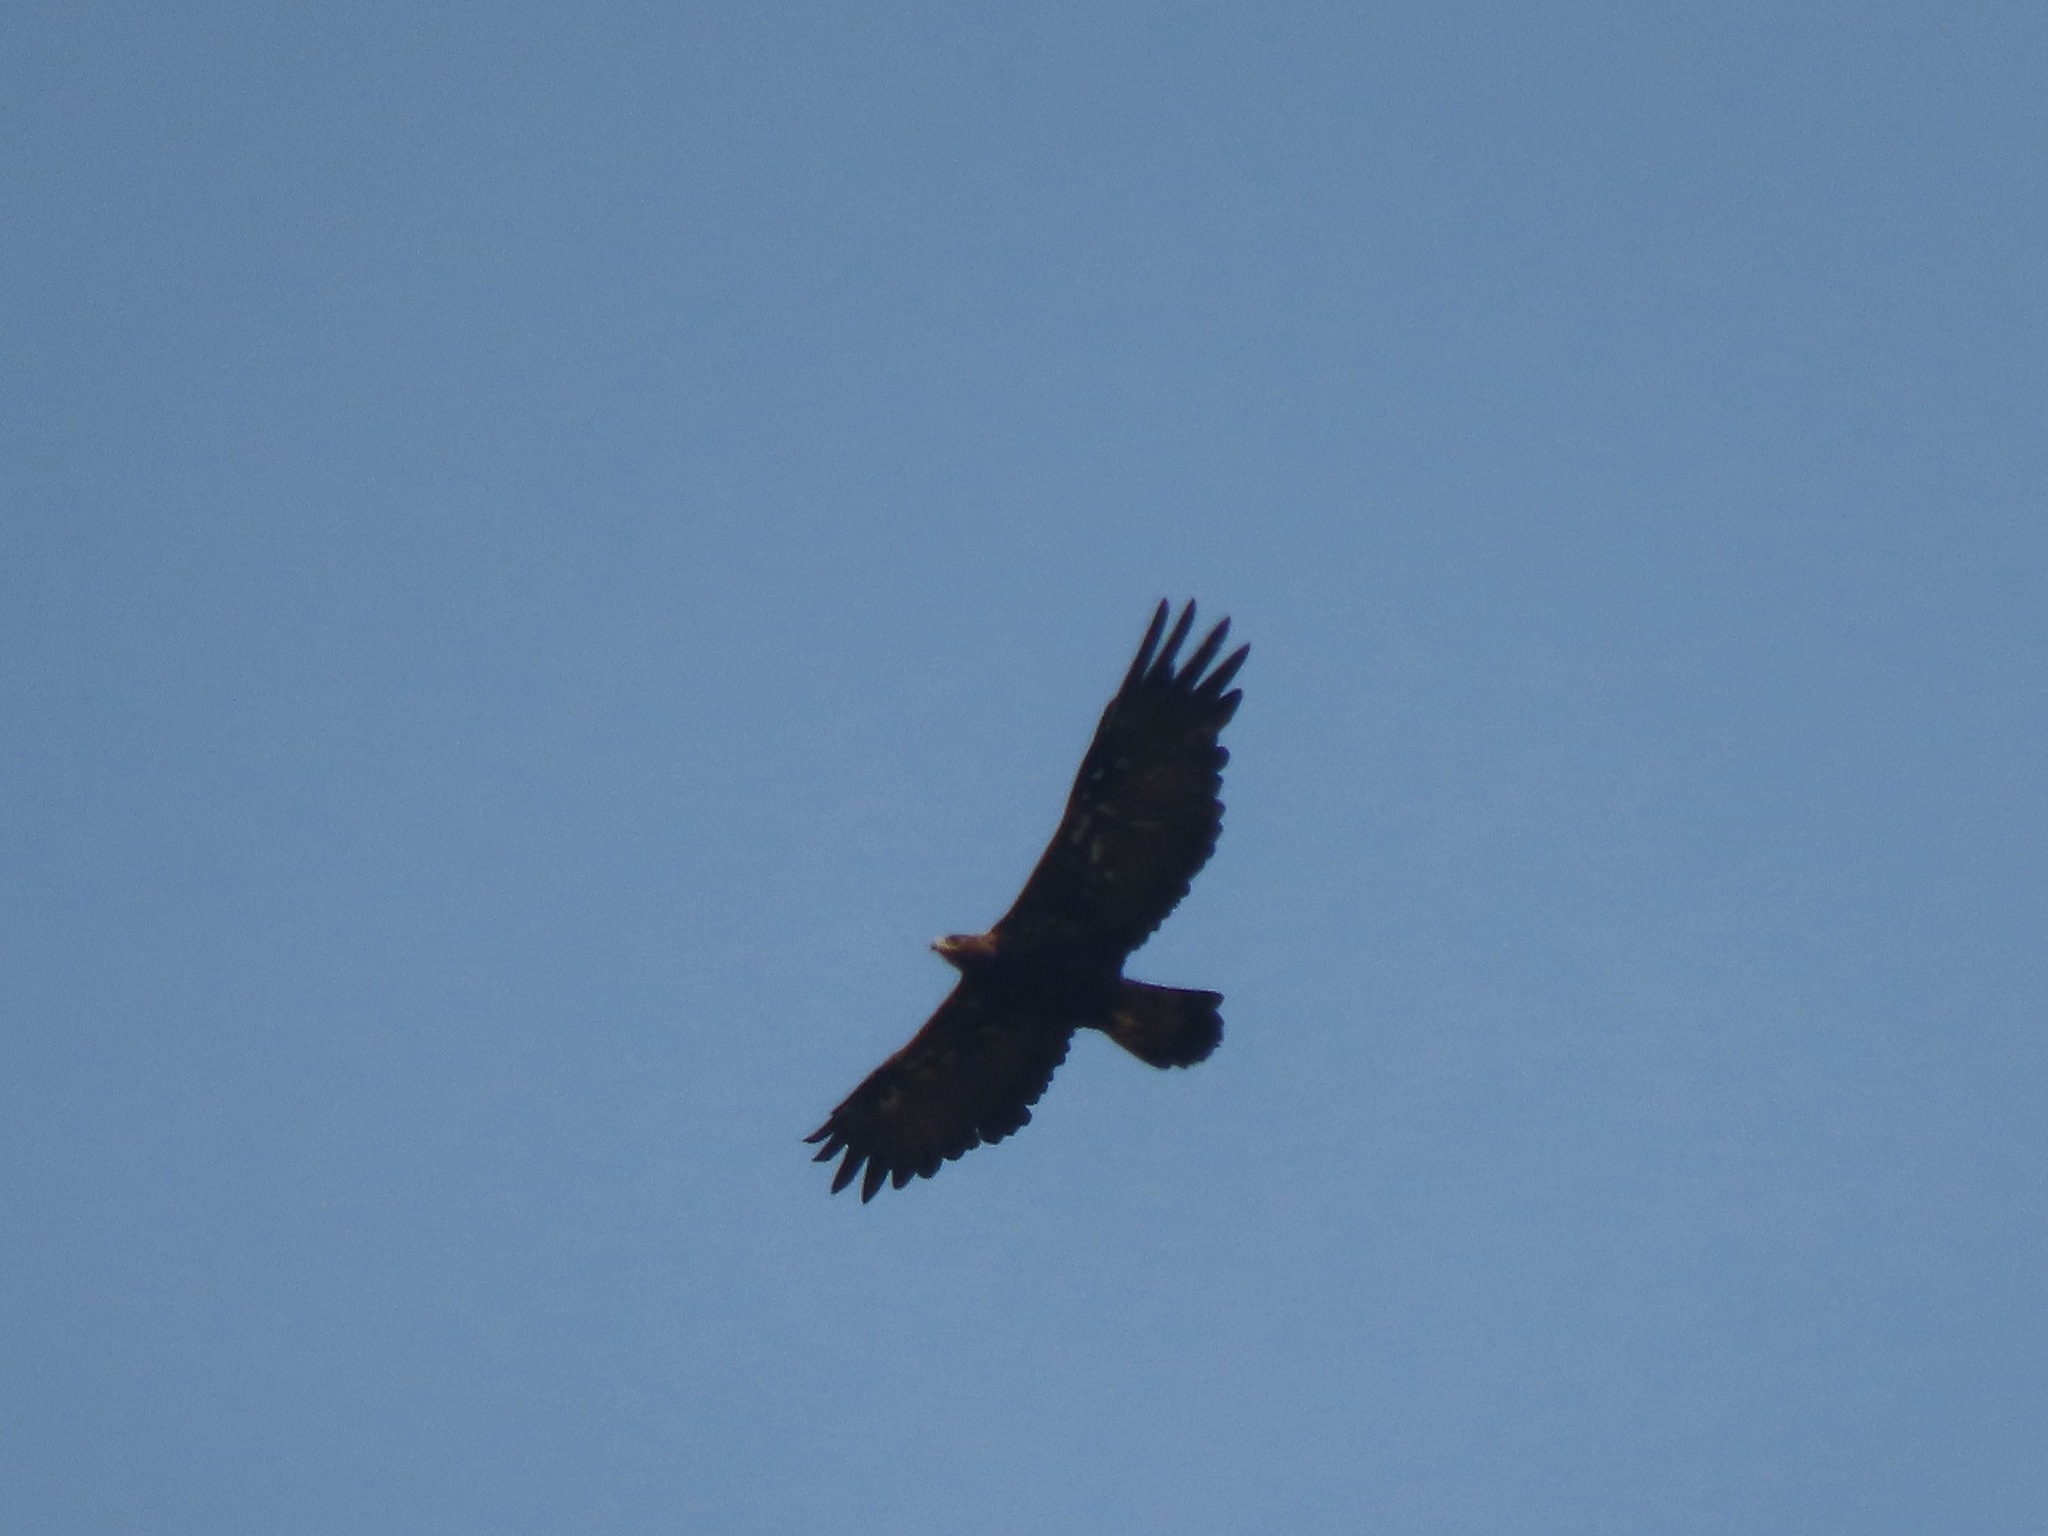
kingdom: Animalia
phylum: Chordata
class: Aves
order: Accipitriformes
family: Accipitridae
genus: Aquila
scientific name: Aquila chrysaetos
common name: Golden eagle
